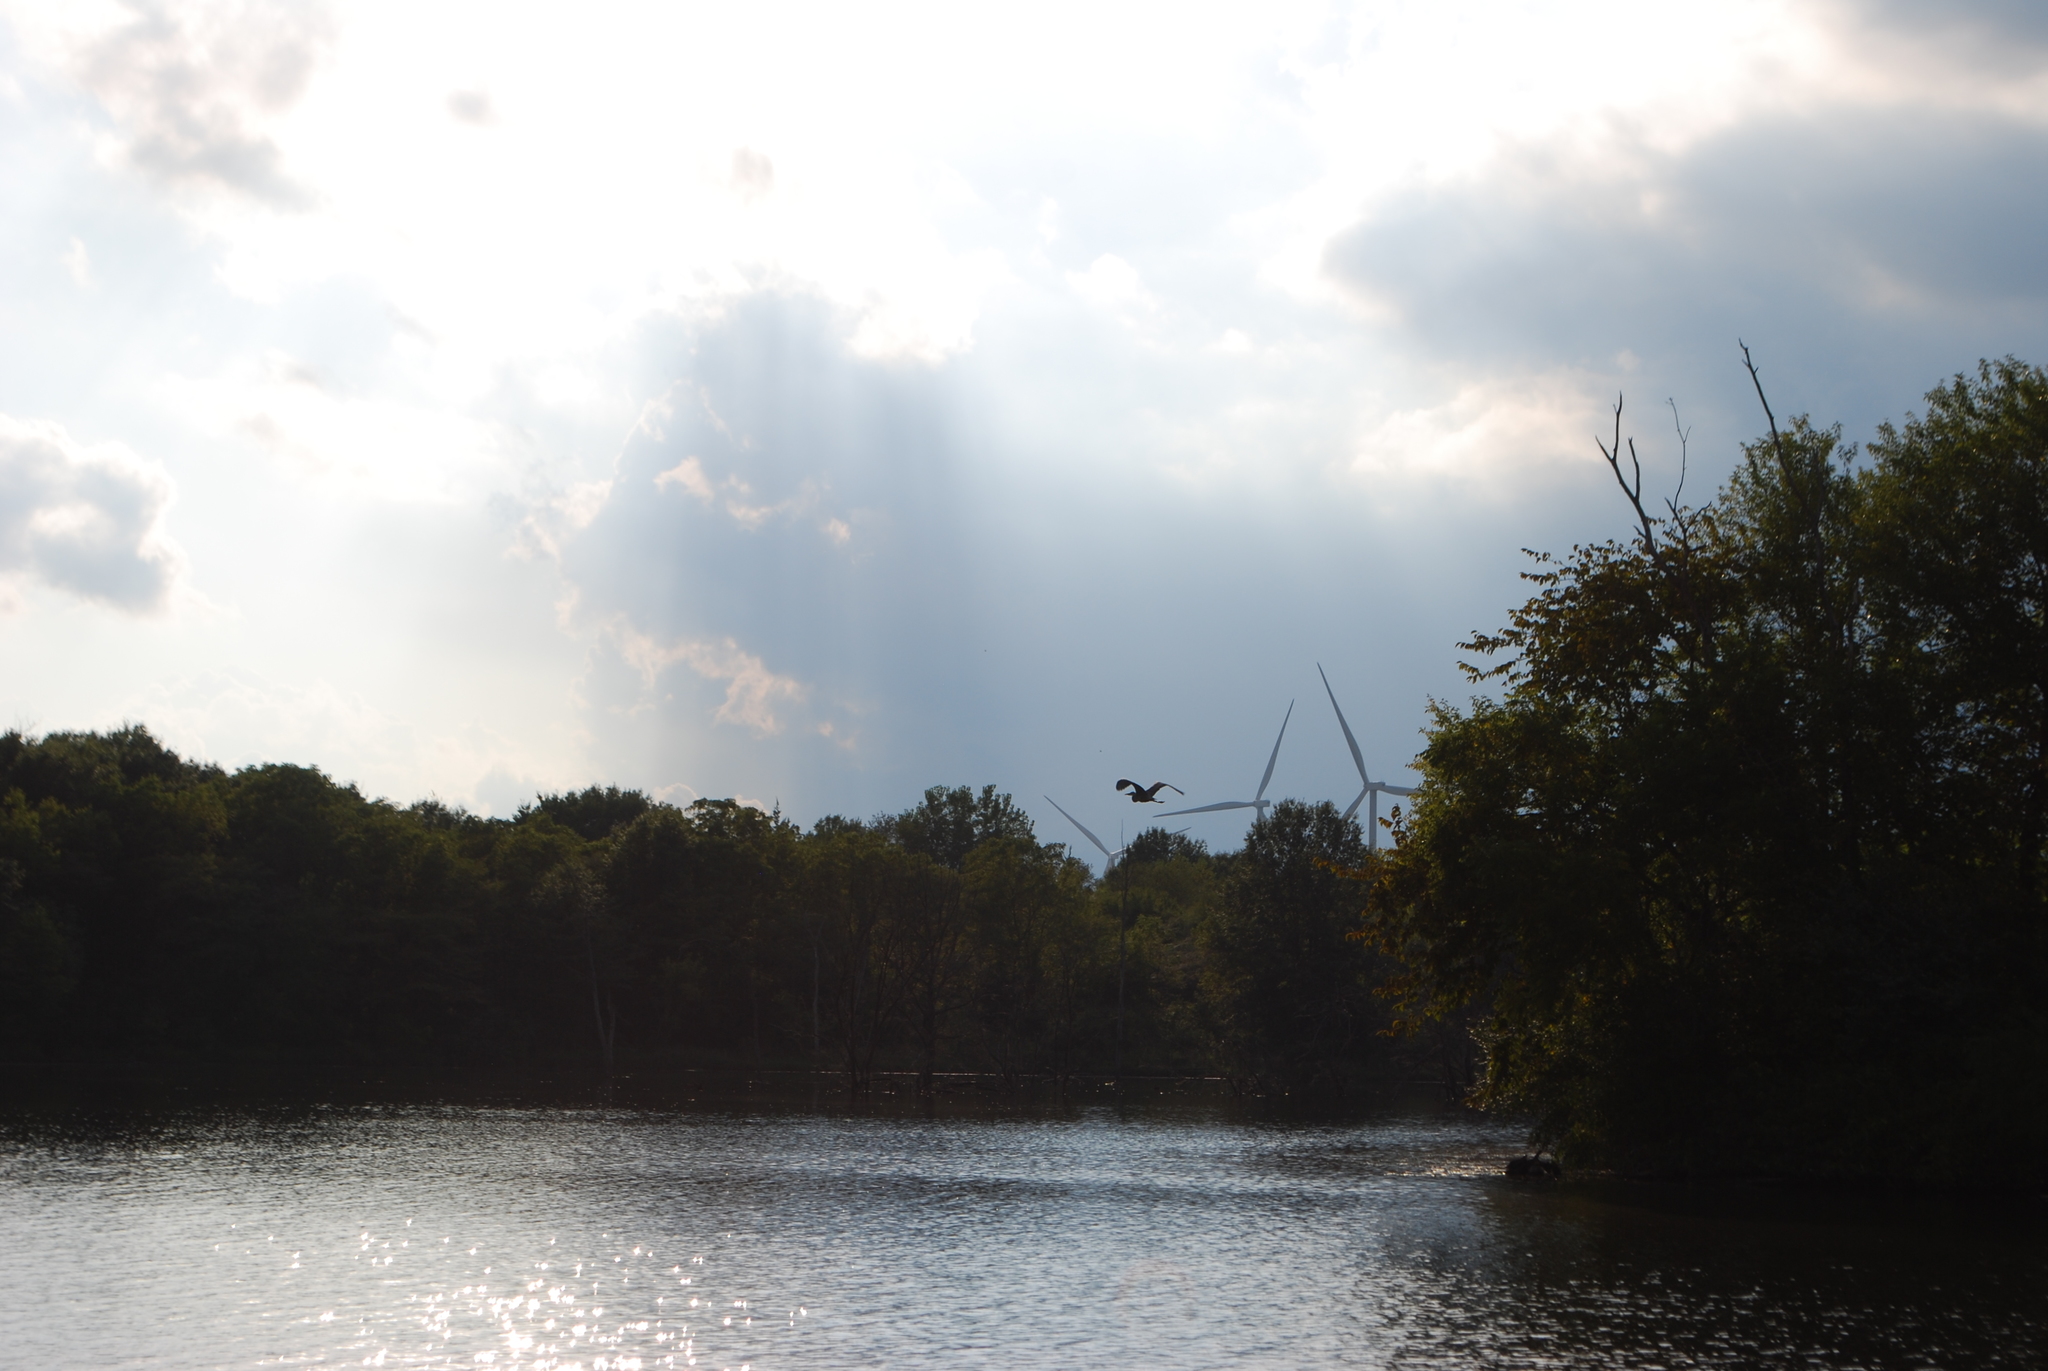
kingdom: Animalia
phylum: Chordata
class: Aves
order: Pelecaniformes
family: Ardeidae
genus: Ardea
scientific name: Ardea herodias
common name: Great blue heron
